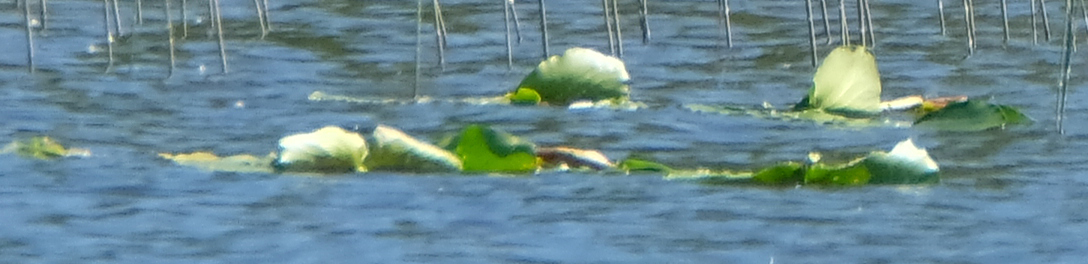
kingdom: Plantae
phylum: Tracheophyta
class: Magnoliopsida
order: Nymphaeales
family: Nymphaeaceae
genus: Nuphar
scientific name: Nuphar polysepala
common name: Rocky mountain cow-lily
